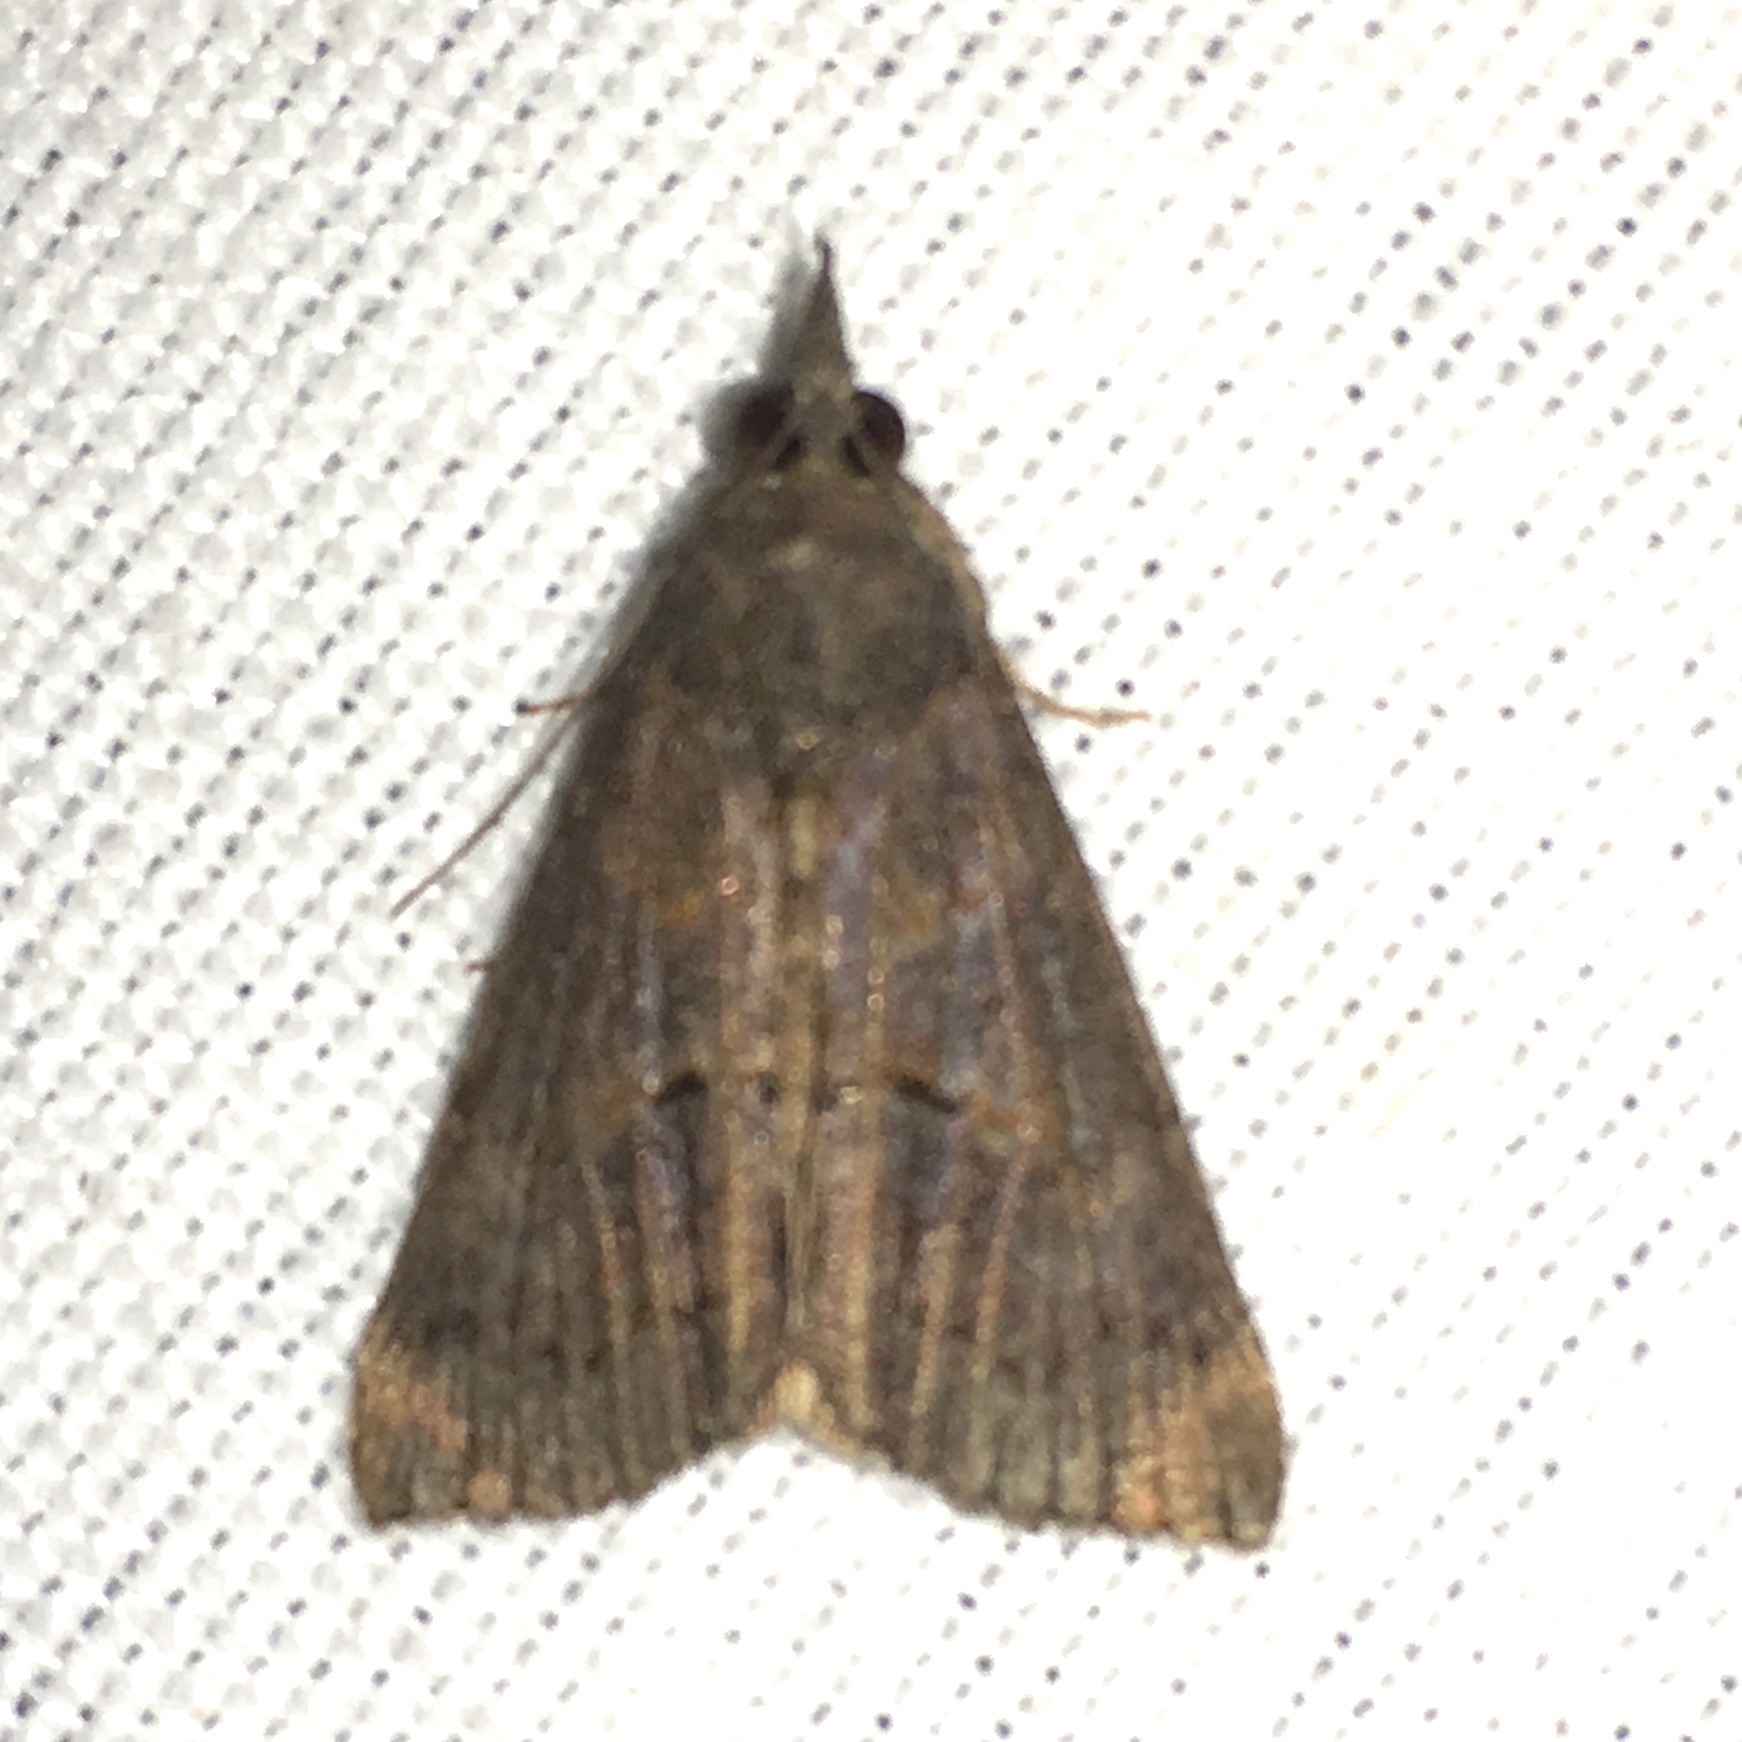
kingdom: Animalia
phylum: Arthropoda
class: Insecta
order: Lepidoptera
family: Erebidae
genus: Hypena
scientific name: Hypena scabra
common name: Green cloverworm
